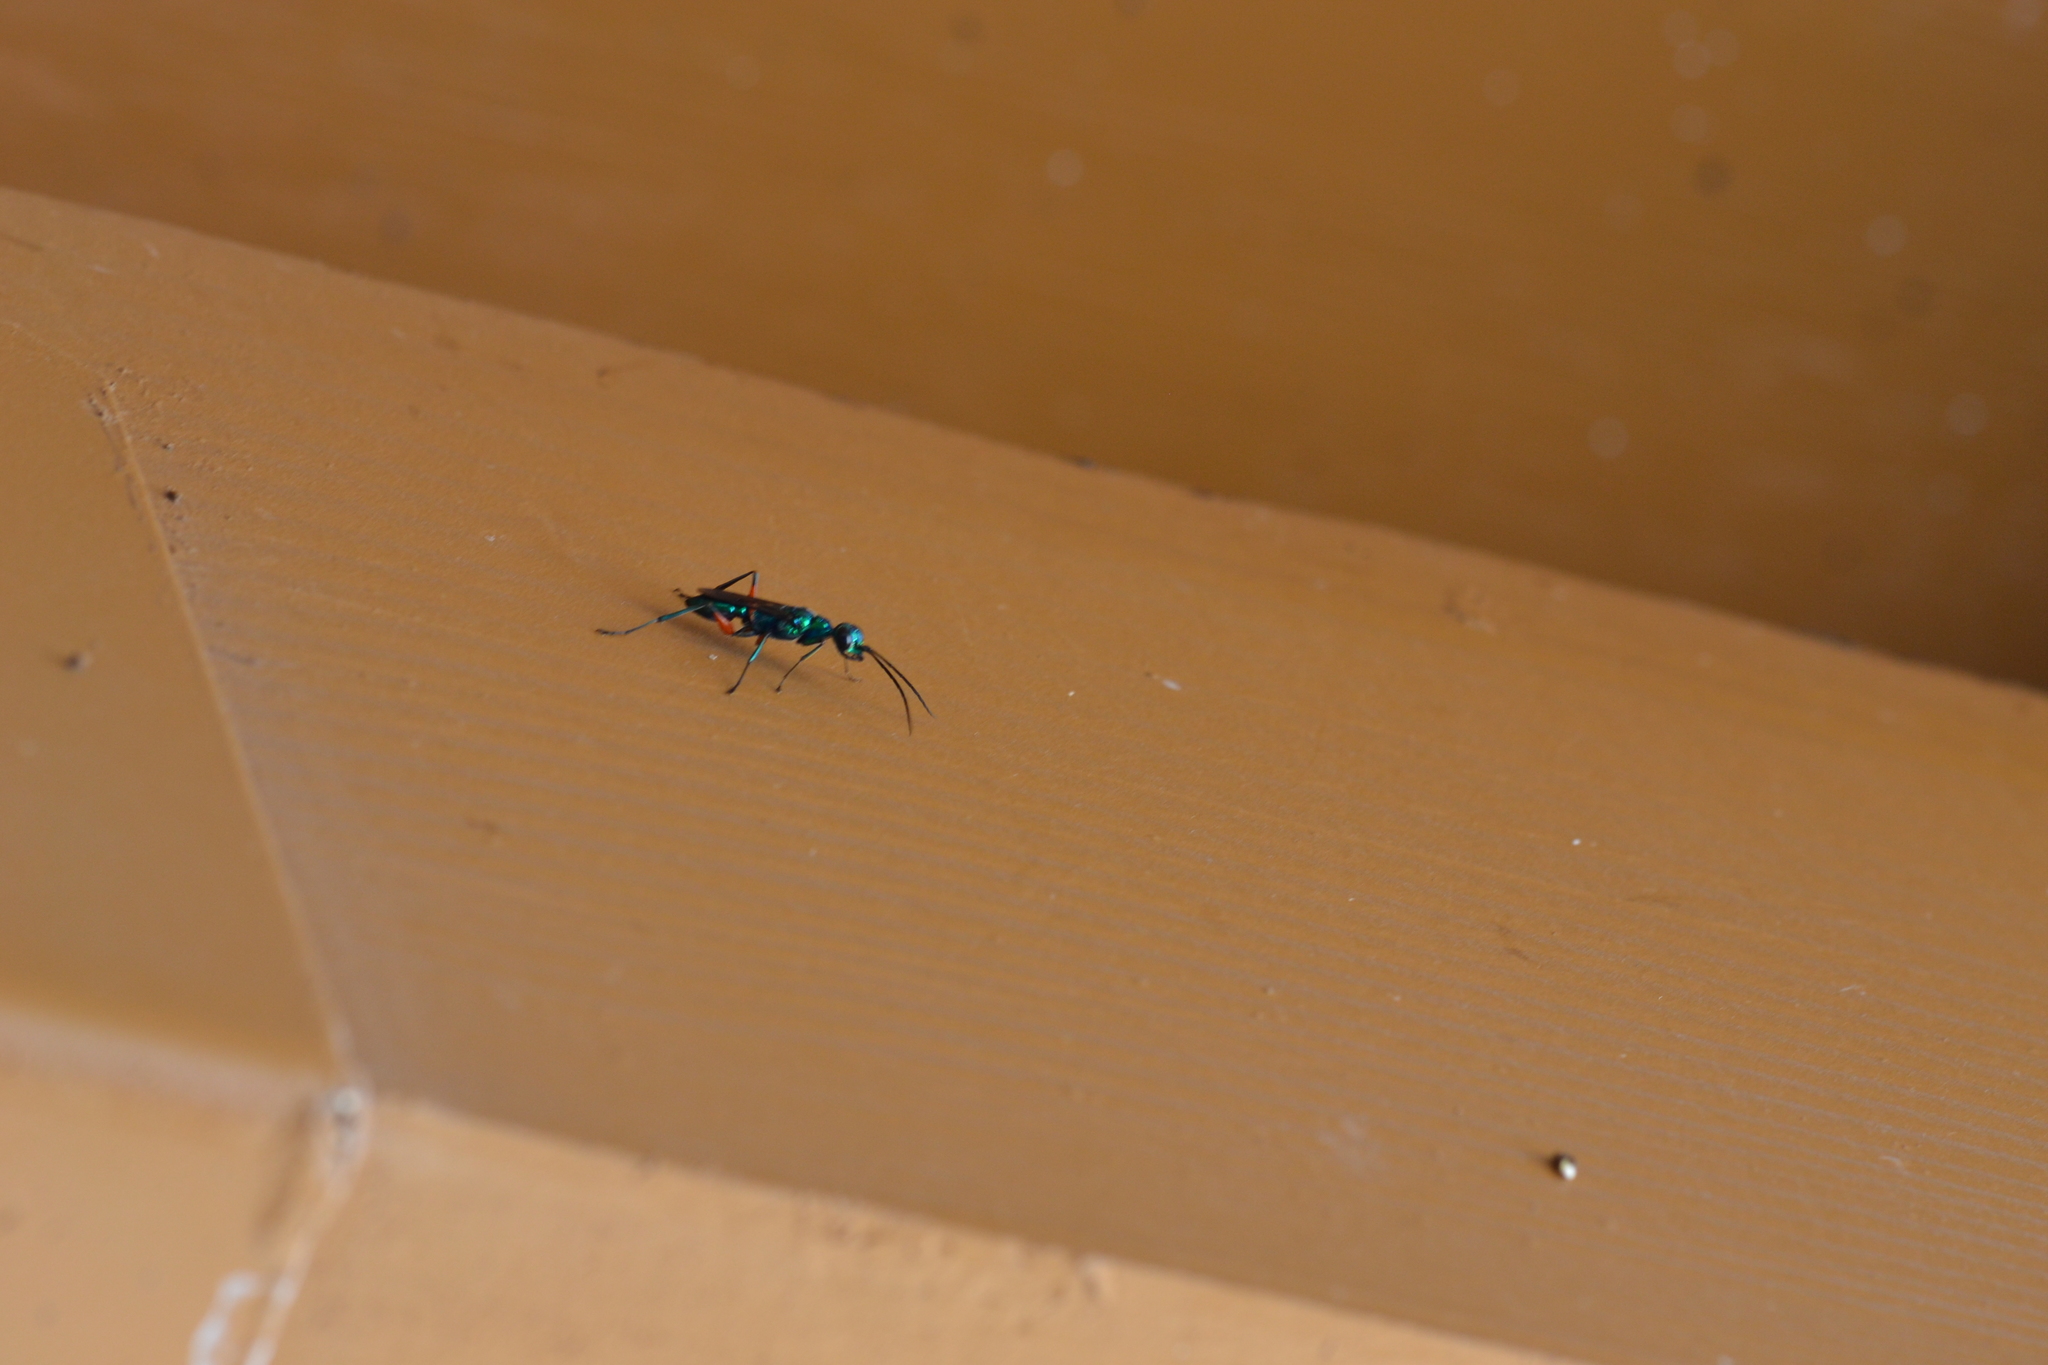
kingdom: Animalia
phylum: Arthropoda
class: Insecta
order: Hymenoptera
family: Ampulicidae
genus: Ampulex
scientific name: Ampulex compressa
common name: Emerald cockroach wasp
